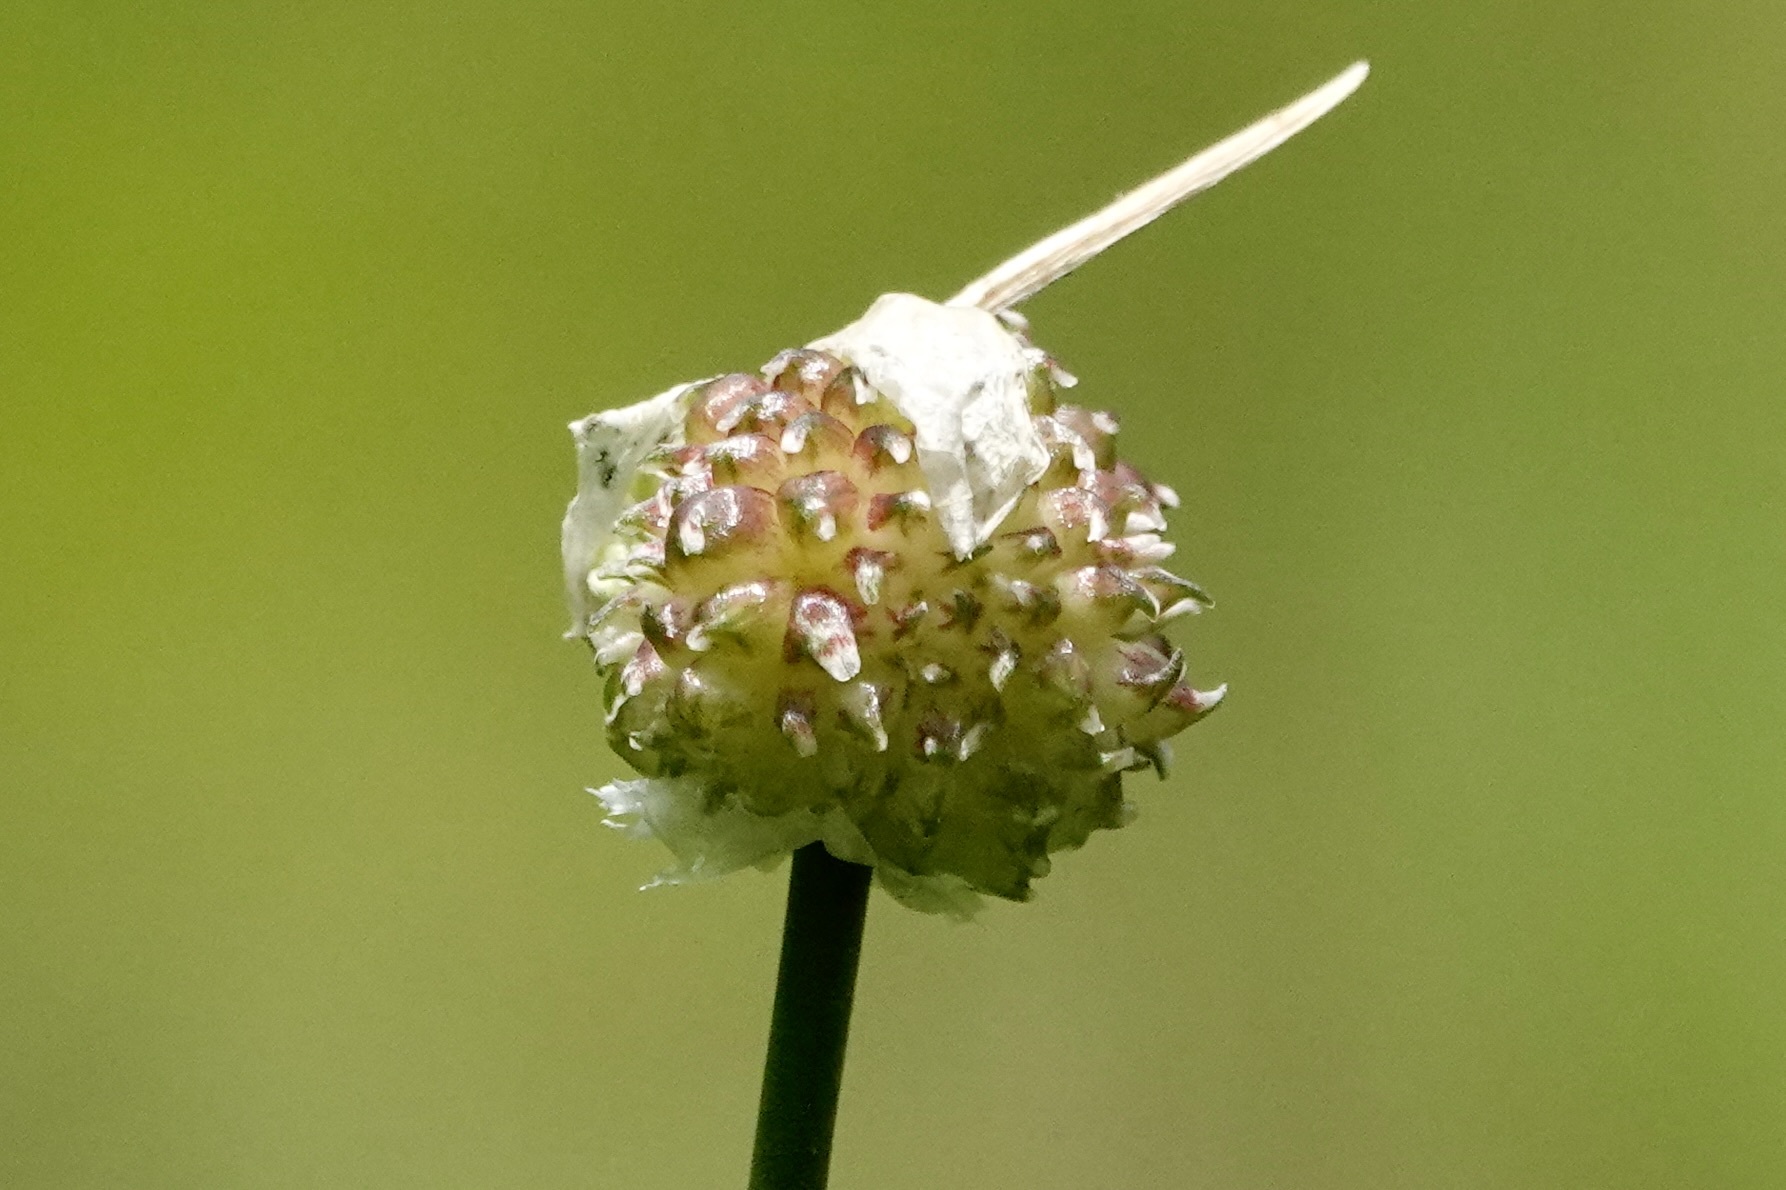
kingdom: Plantae
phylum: Tracheophyta
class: Liliopsida
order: Asparagales
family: Amaryllidaceae
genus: Allium
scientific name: Allium vineale
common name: Crow garlic
